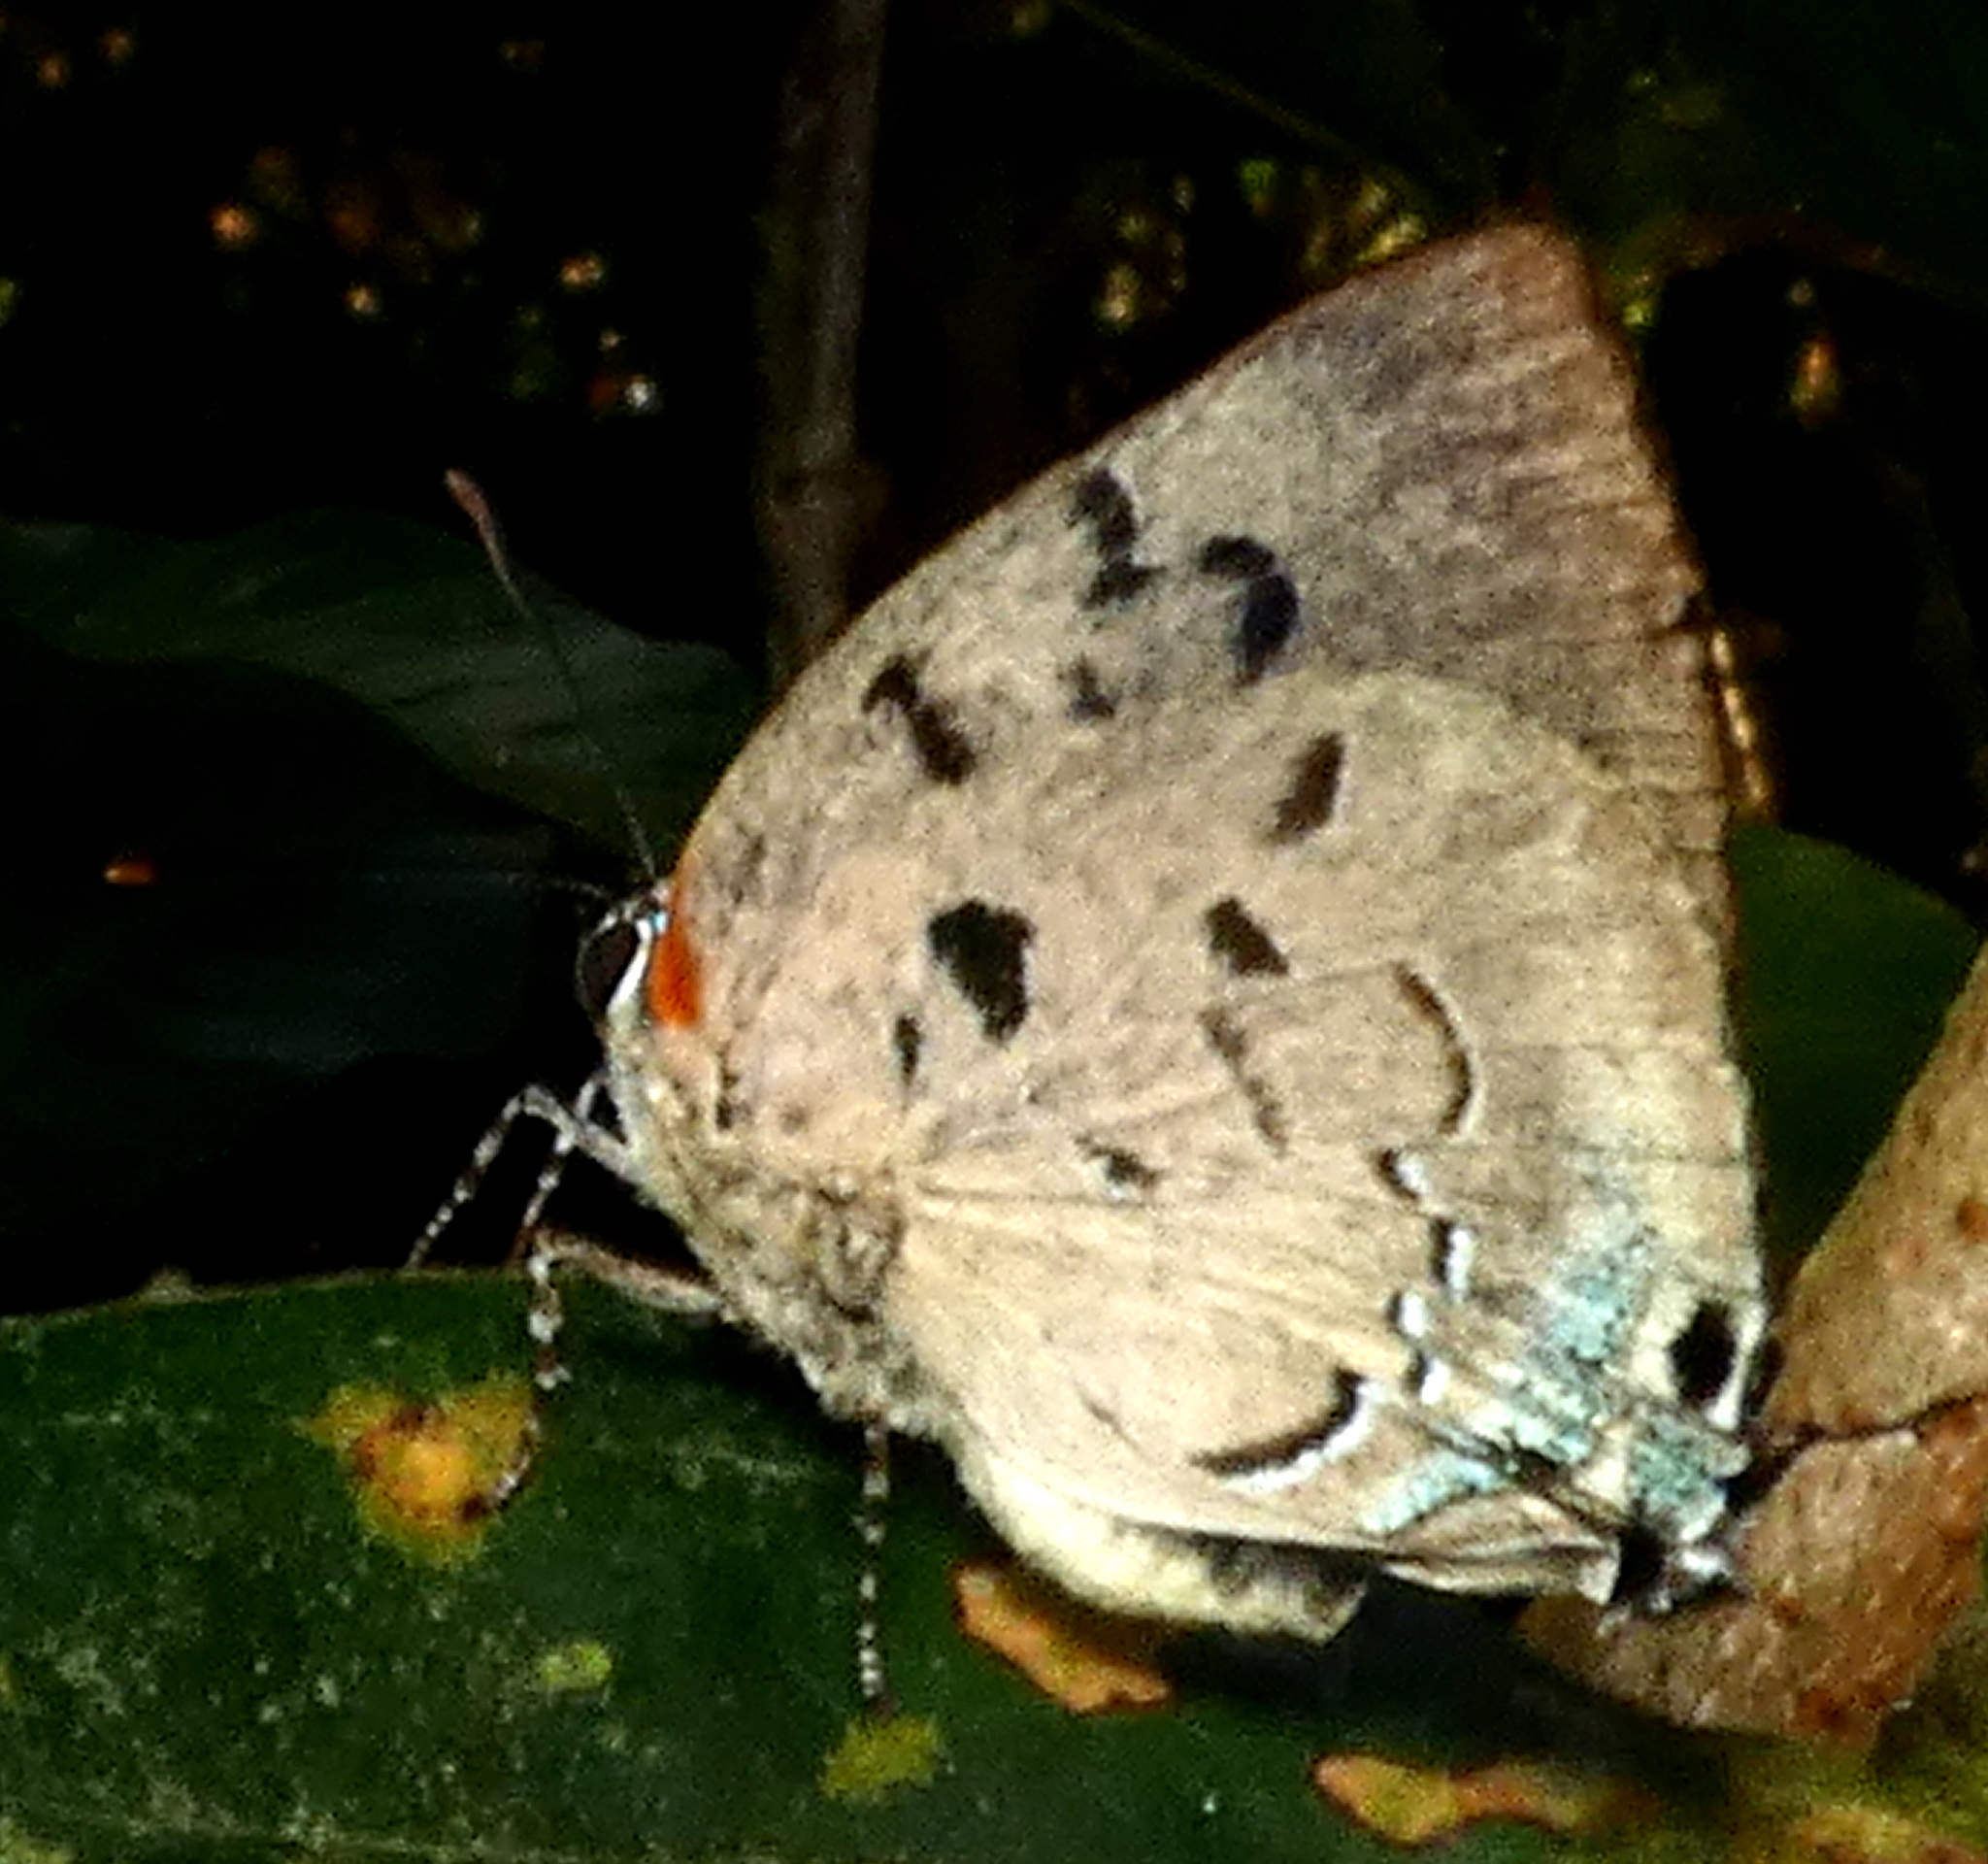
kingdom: Animalia
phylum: Arthropoda
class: Insecta
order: Lepidoptera
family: Lycaenidae
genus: Panthiades
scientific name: Panthiades hebraeus
